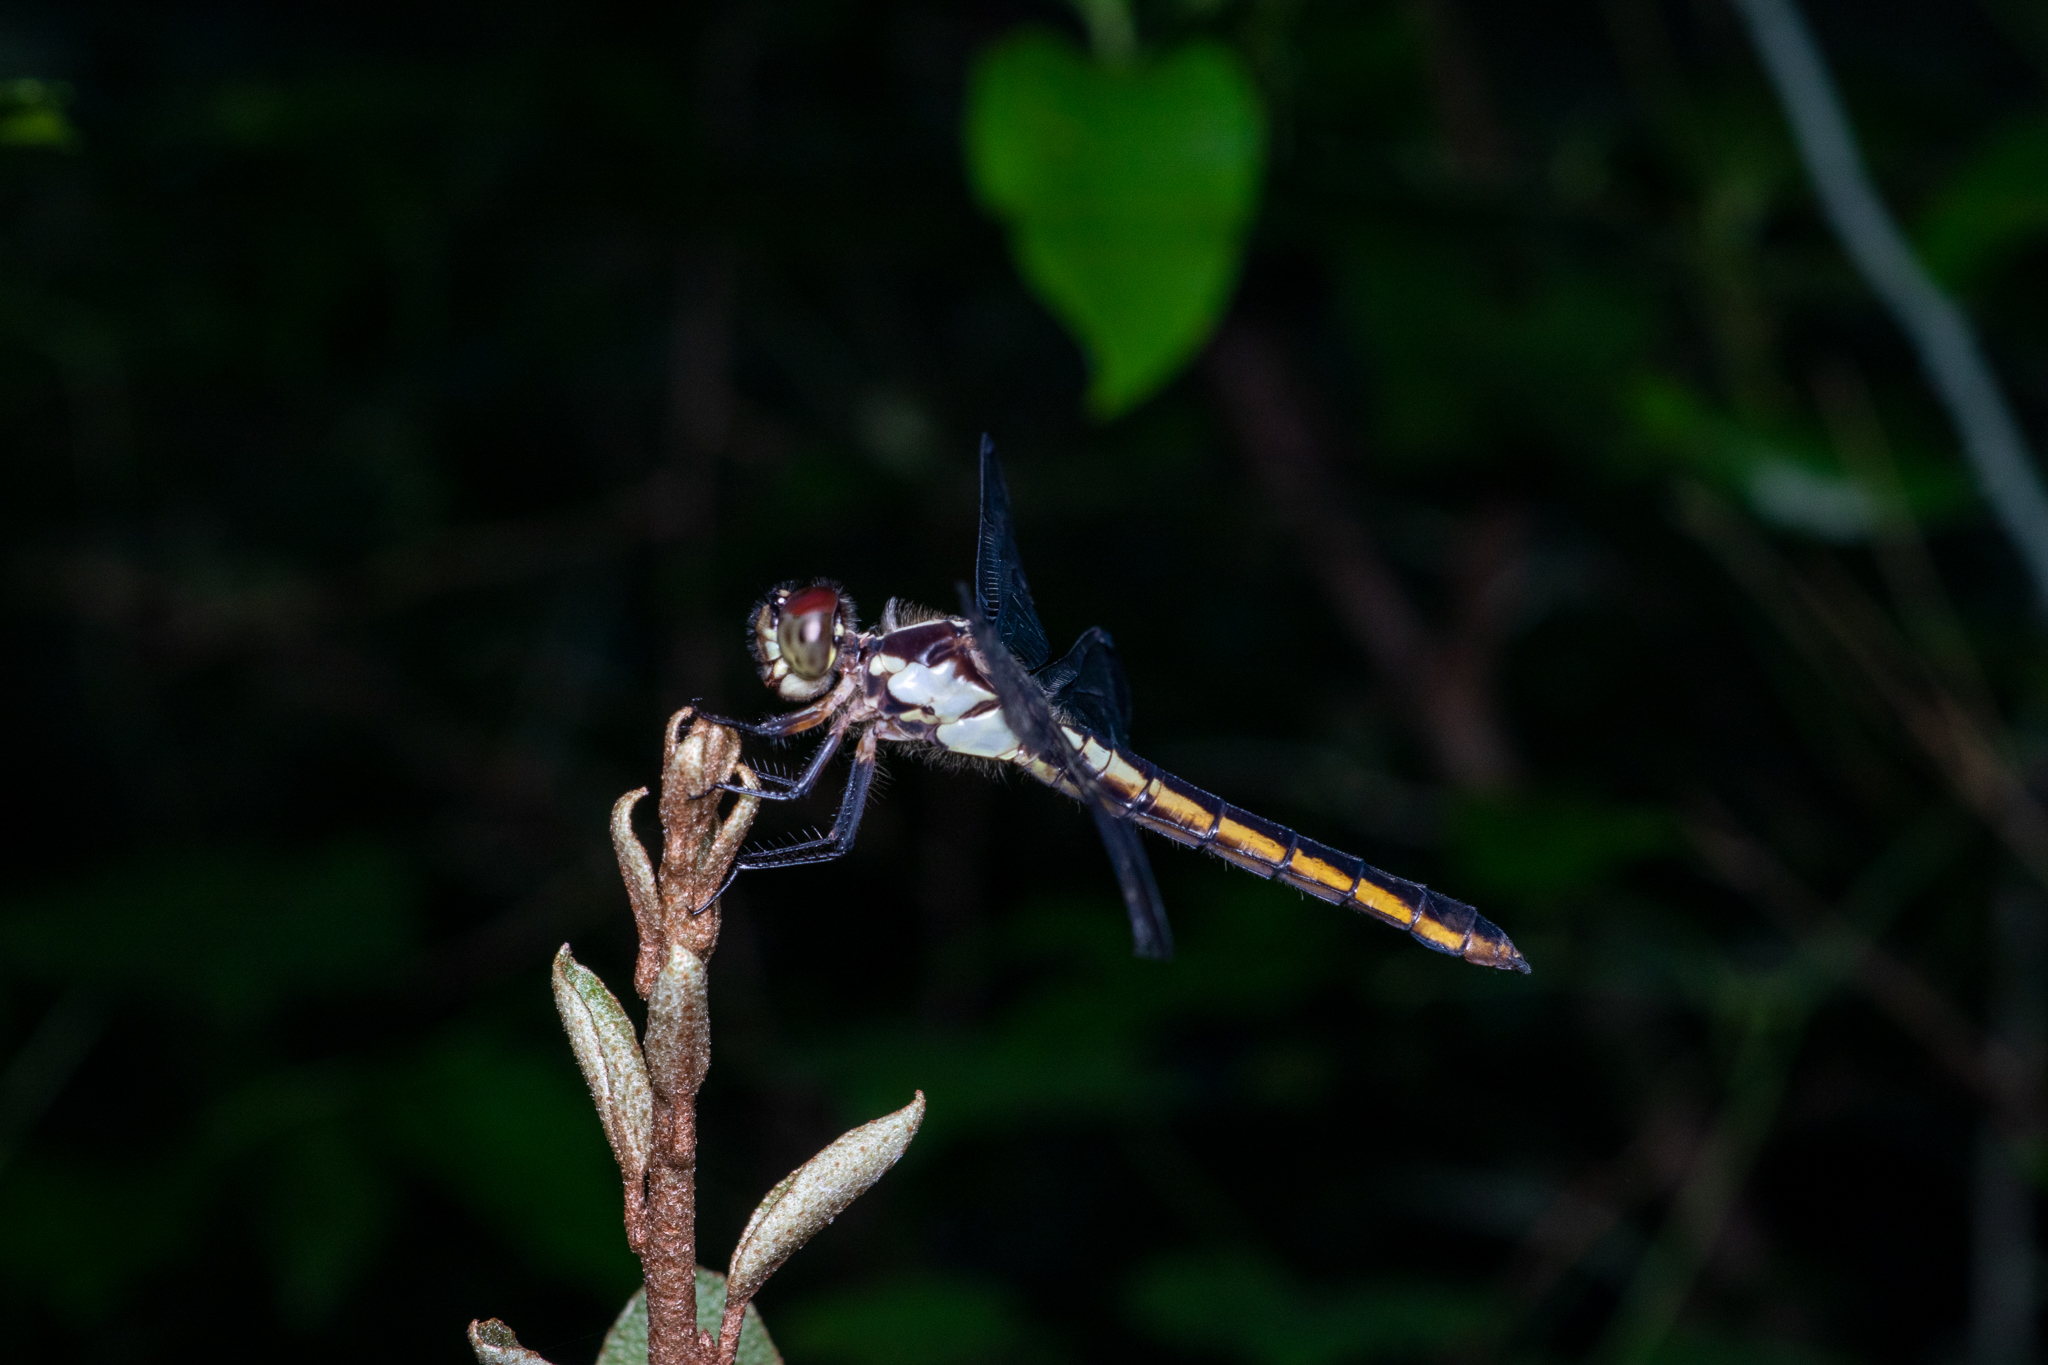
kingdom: Animalia
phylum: Arthropoda
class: Insecta
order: Odonata
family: Libellulidae
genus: Libellula
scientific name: Libellula incesta
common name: Slaty skimmer
